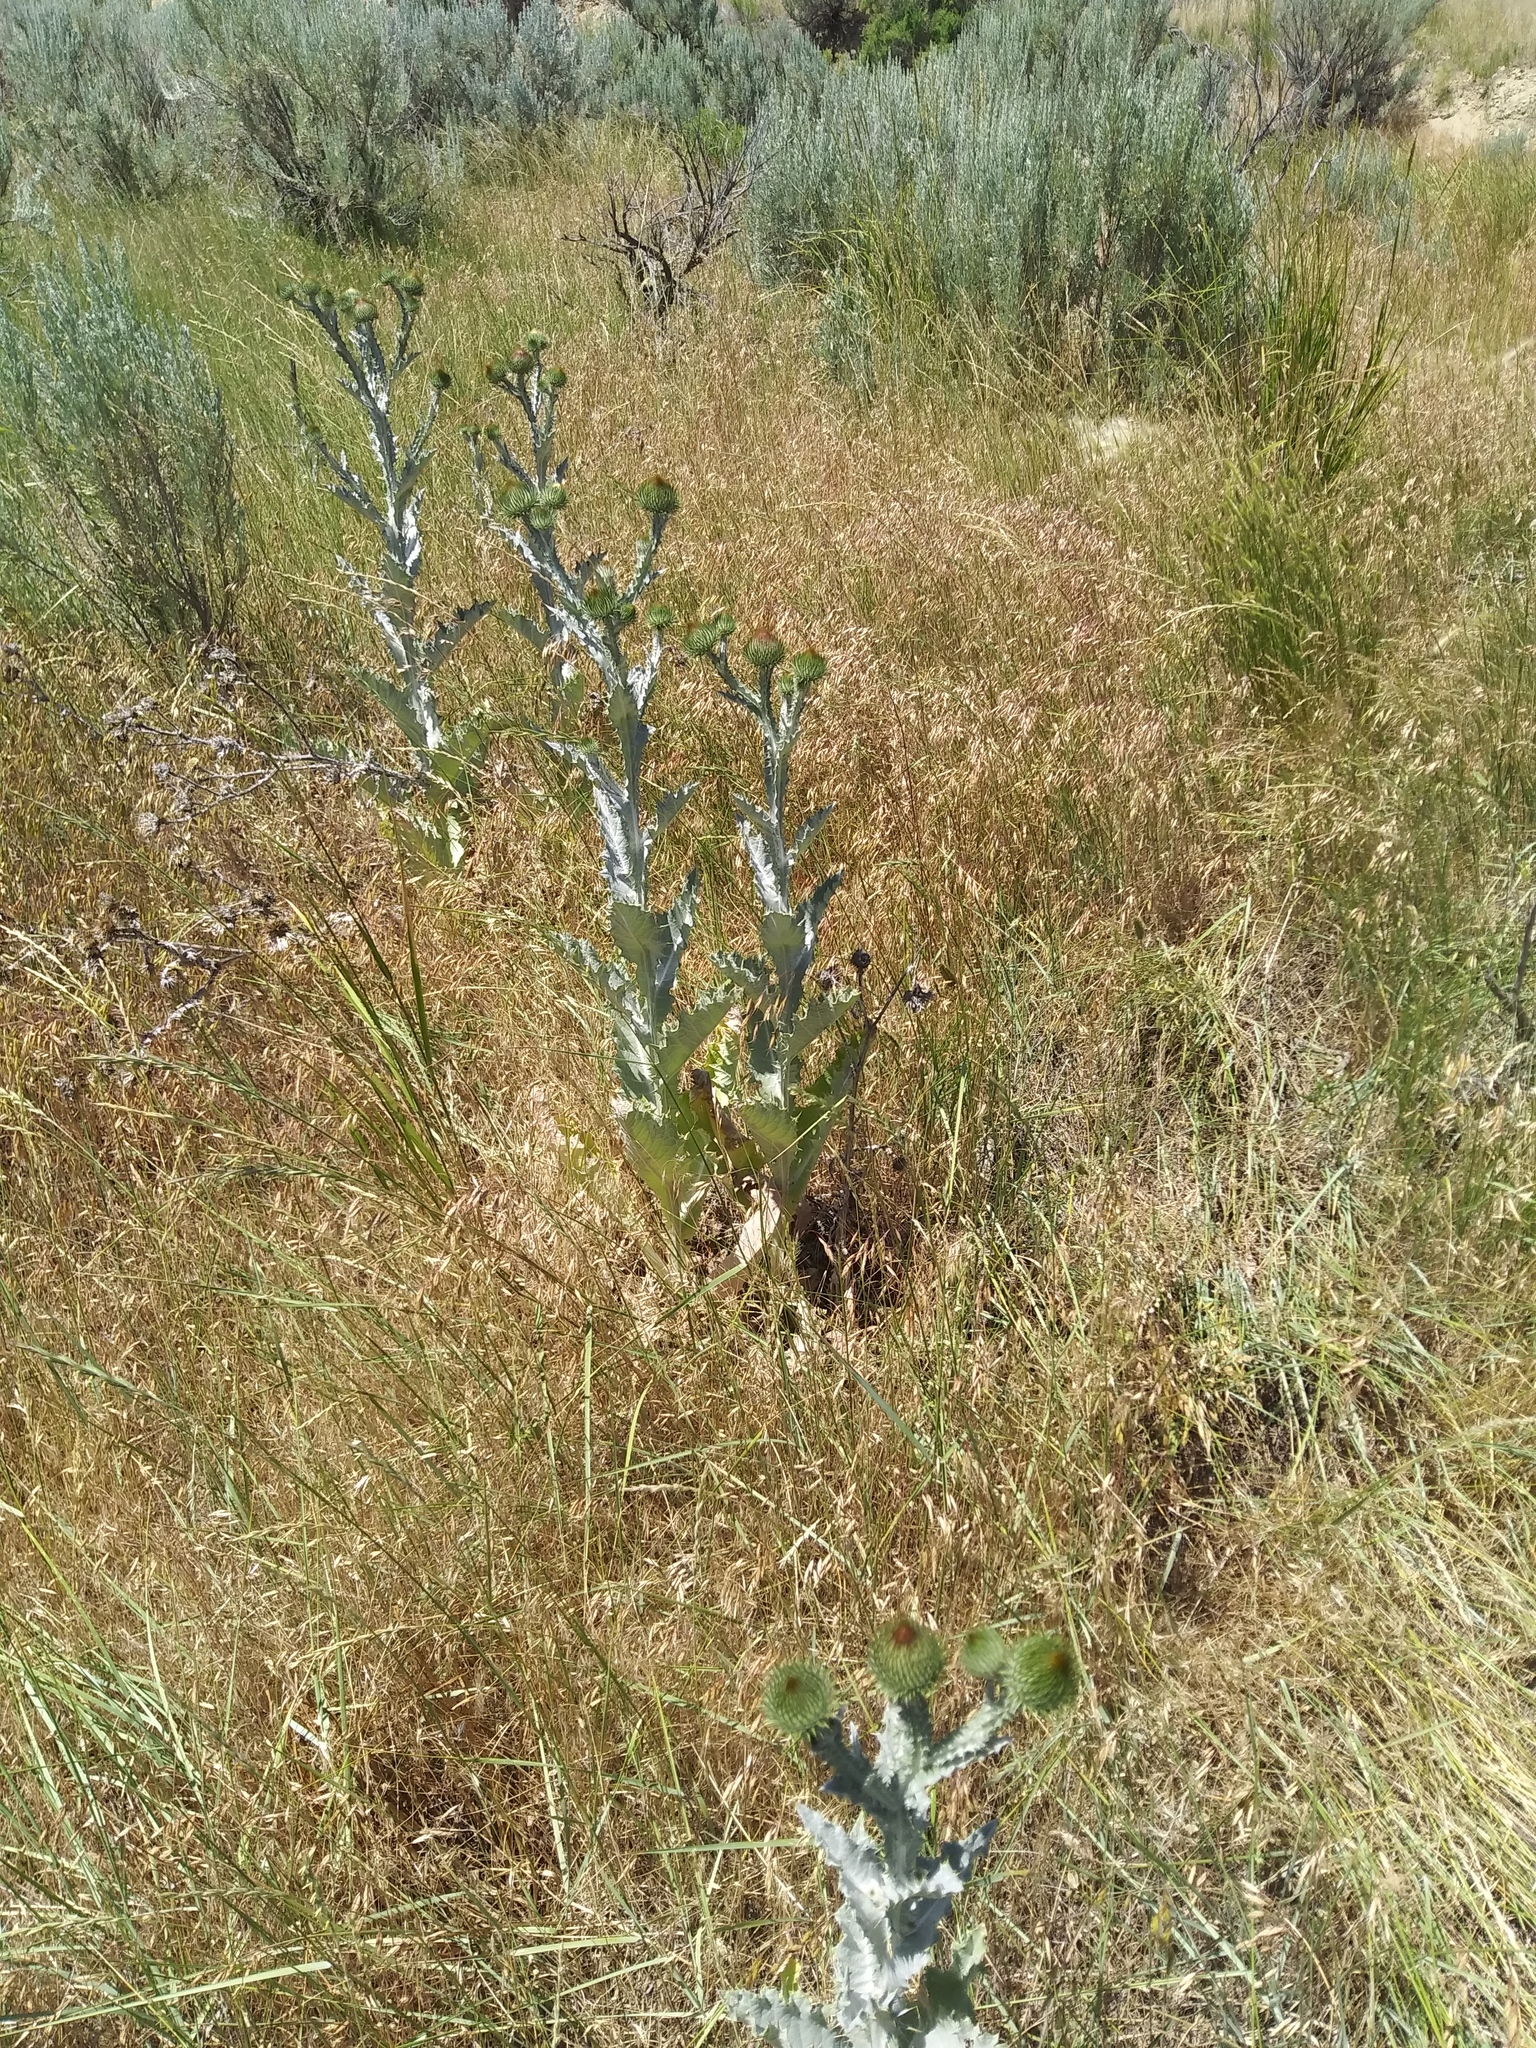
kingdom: Plantae
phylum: Tracheophyta
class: Magnoliopsida
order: Asterales
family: Asteraceae
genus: Onopordum
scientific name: Onopordum acanthium
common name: Scotch thistle
